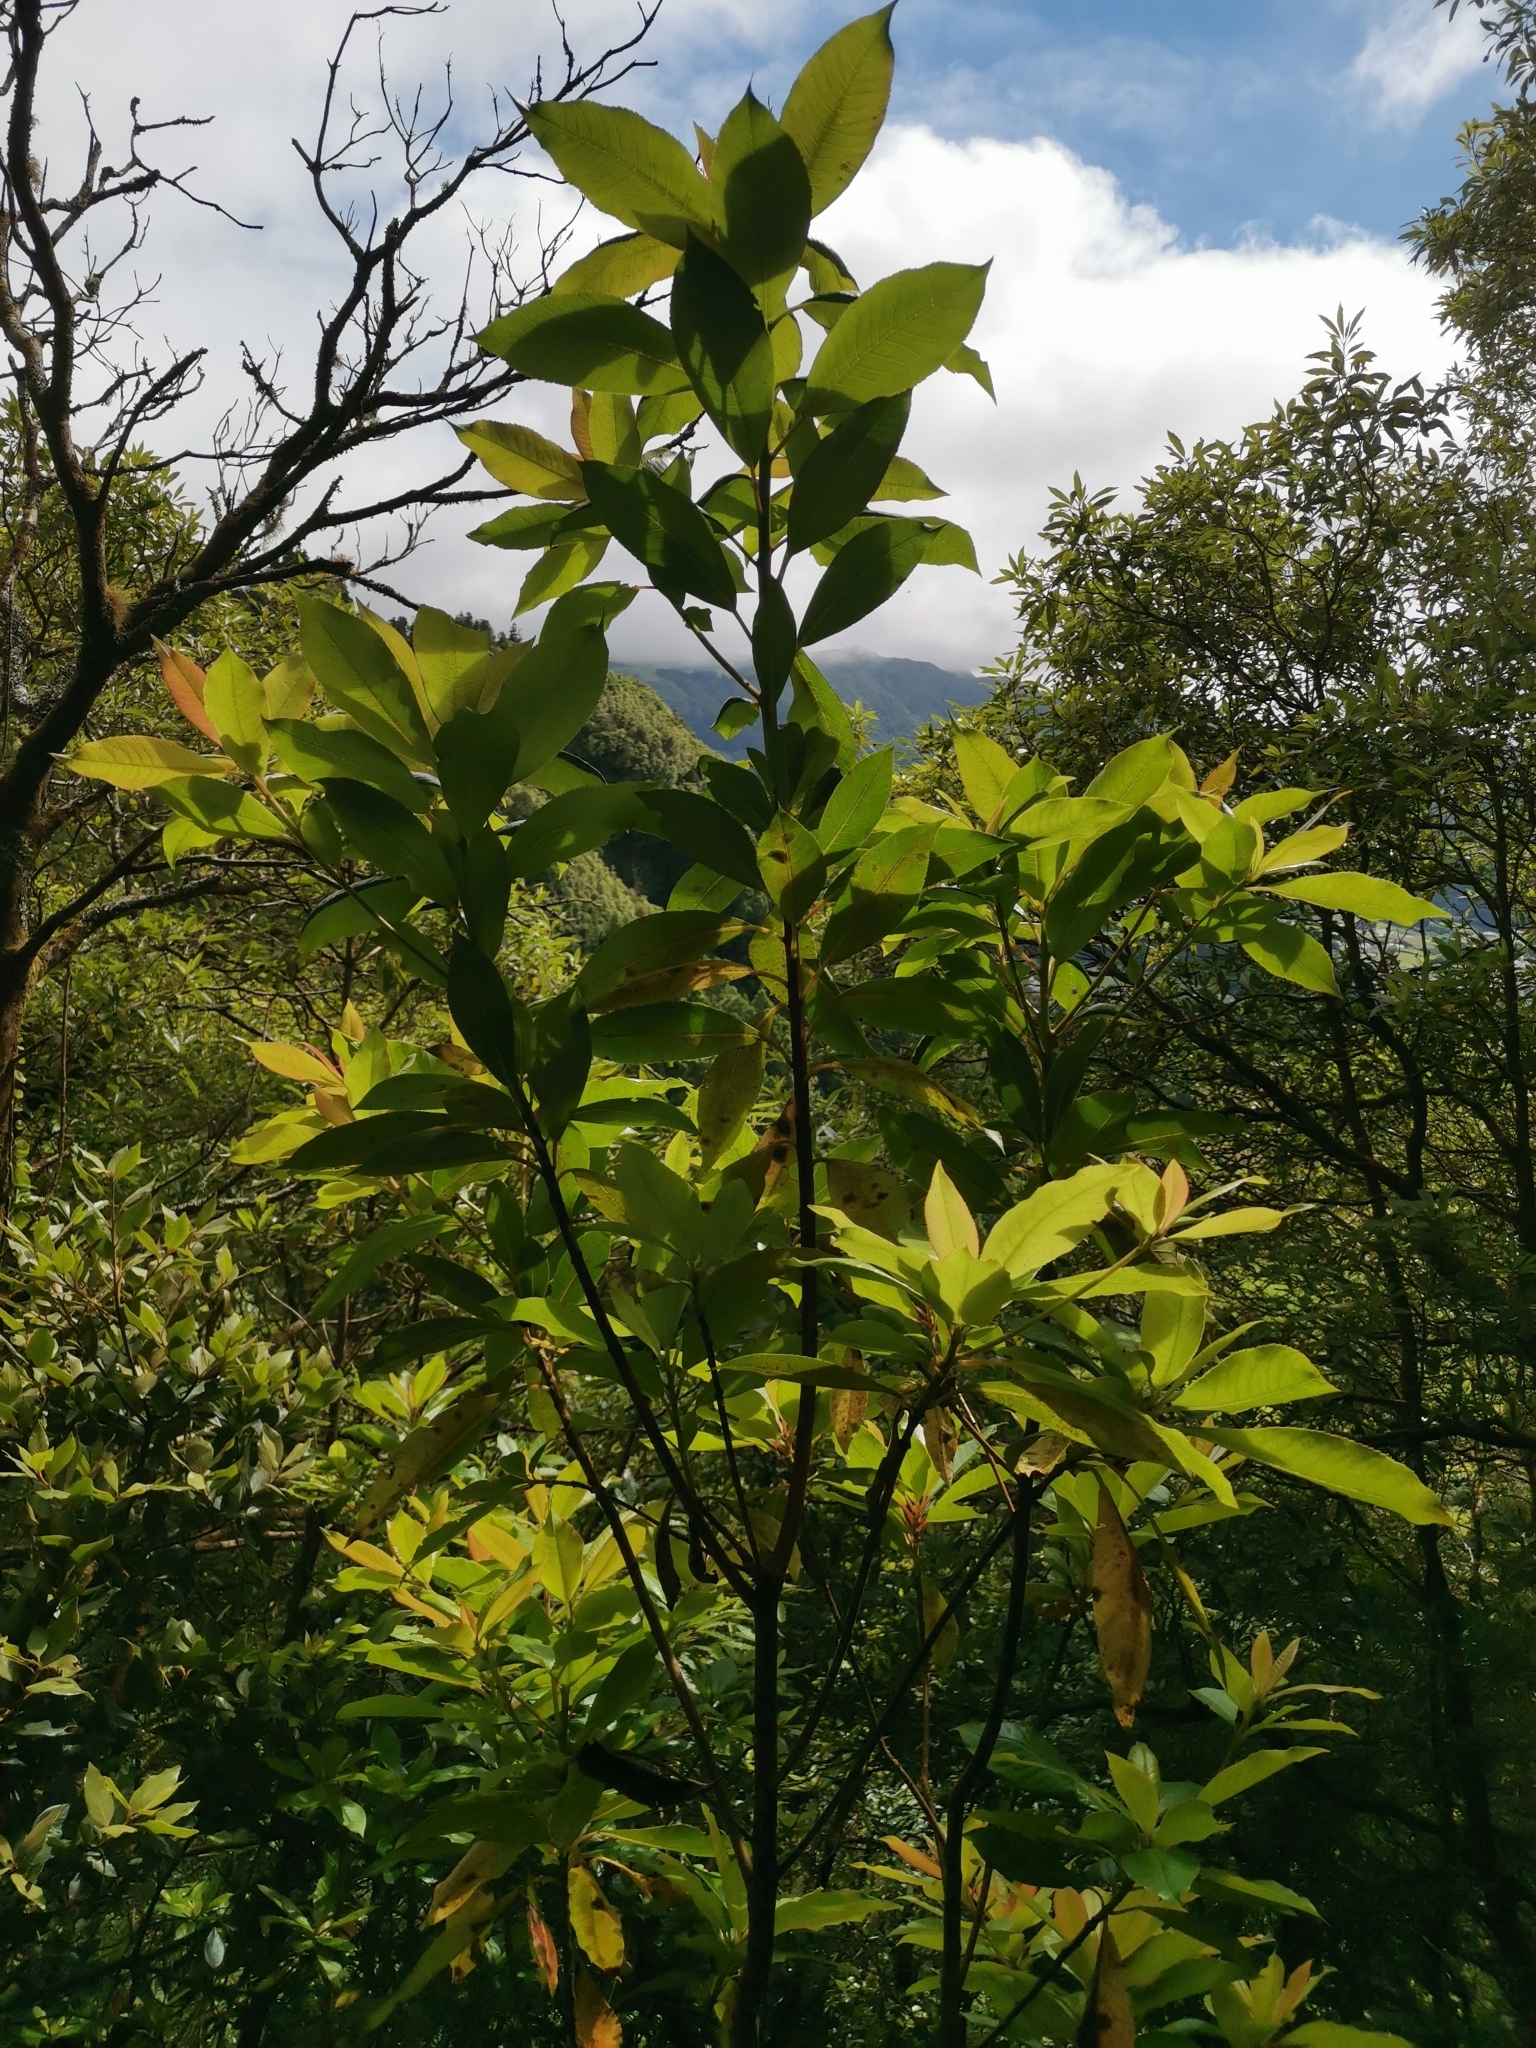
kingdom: Plantae
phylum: Tracheophyta
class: Magnoliopsida
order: Ericales
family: Clethraceae
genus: Clethra
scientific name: Clethra arborea
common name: Lily-of-the-valley-tree
